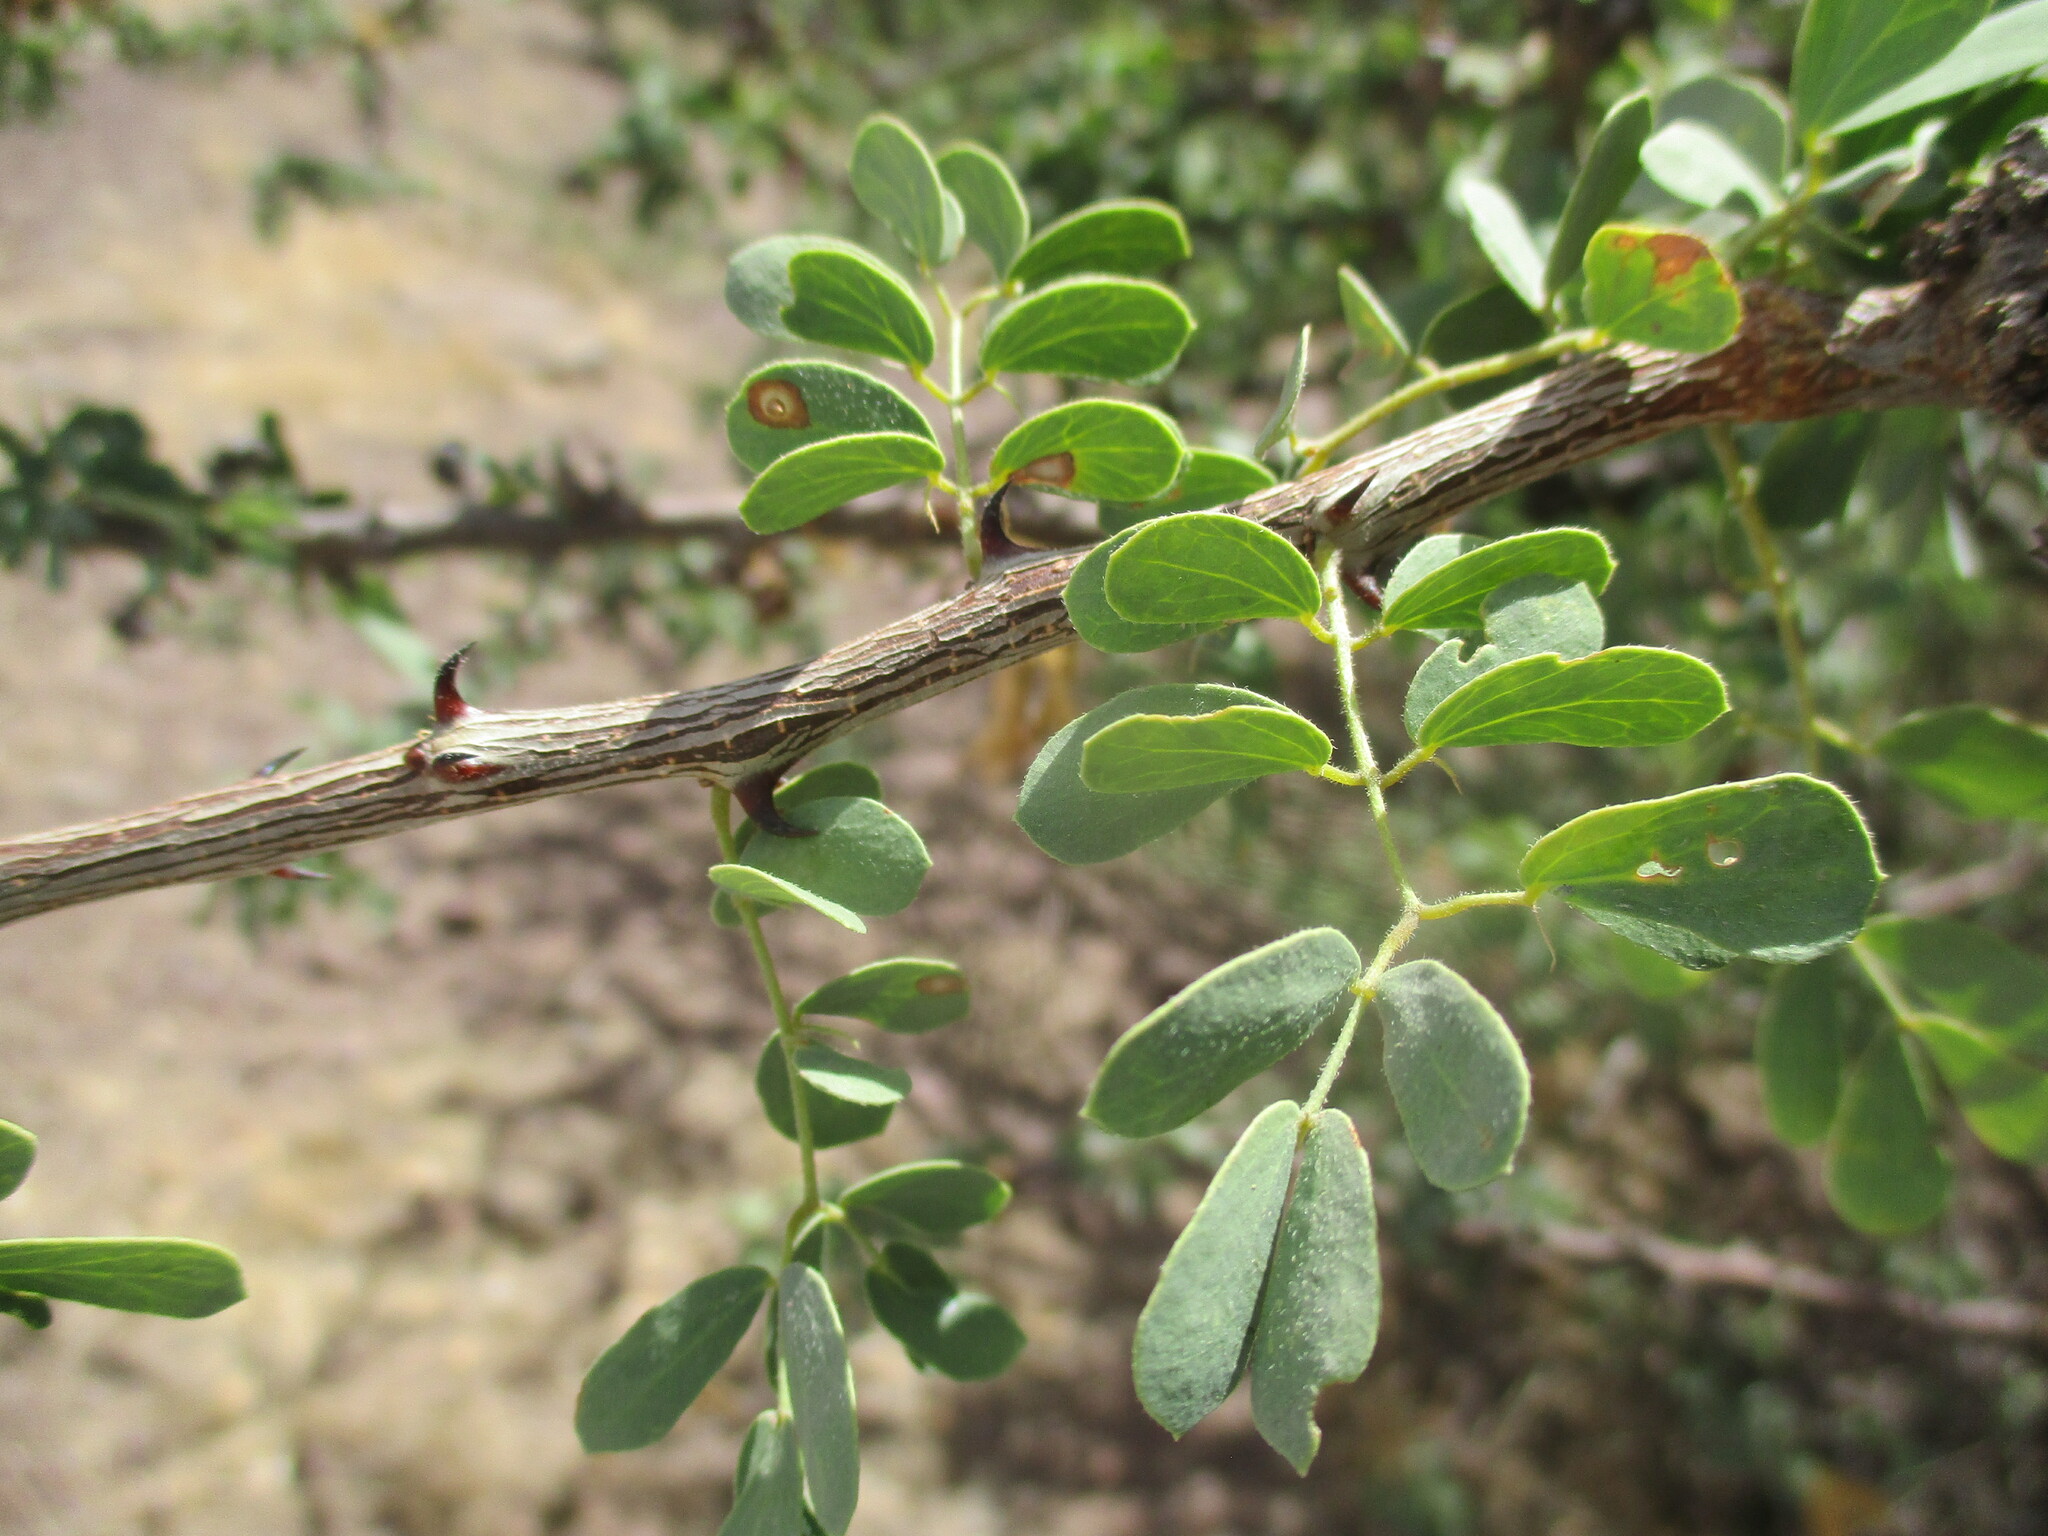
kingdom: Plantae
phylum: Tracheophyta
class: Magnoliopsida
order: Fabales
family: Fabaceae
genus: Senegalia
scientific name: Senegalia mellifera
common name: Hookthorn
